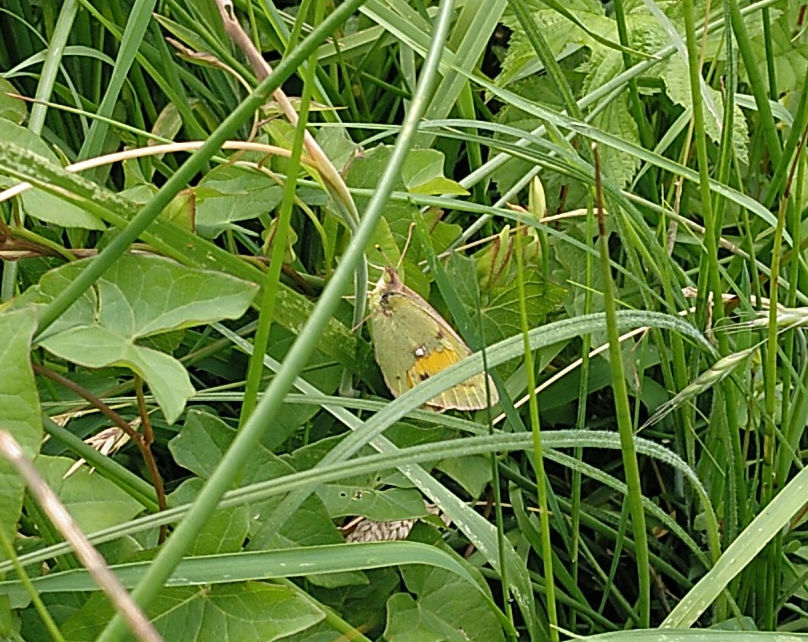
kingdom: Animalia
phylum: Arthropoda
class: Insecta
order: Lepidoptera
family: Pieridae
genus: Colias
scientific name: Colias croceus
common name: Clouded yellow
